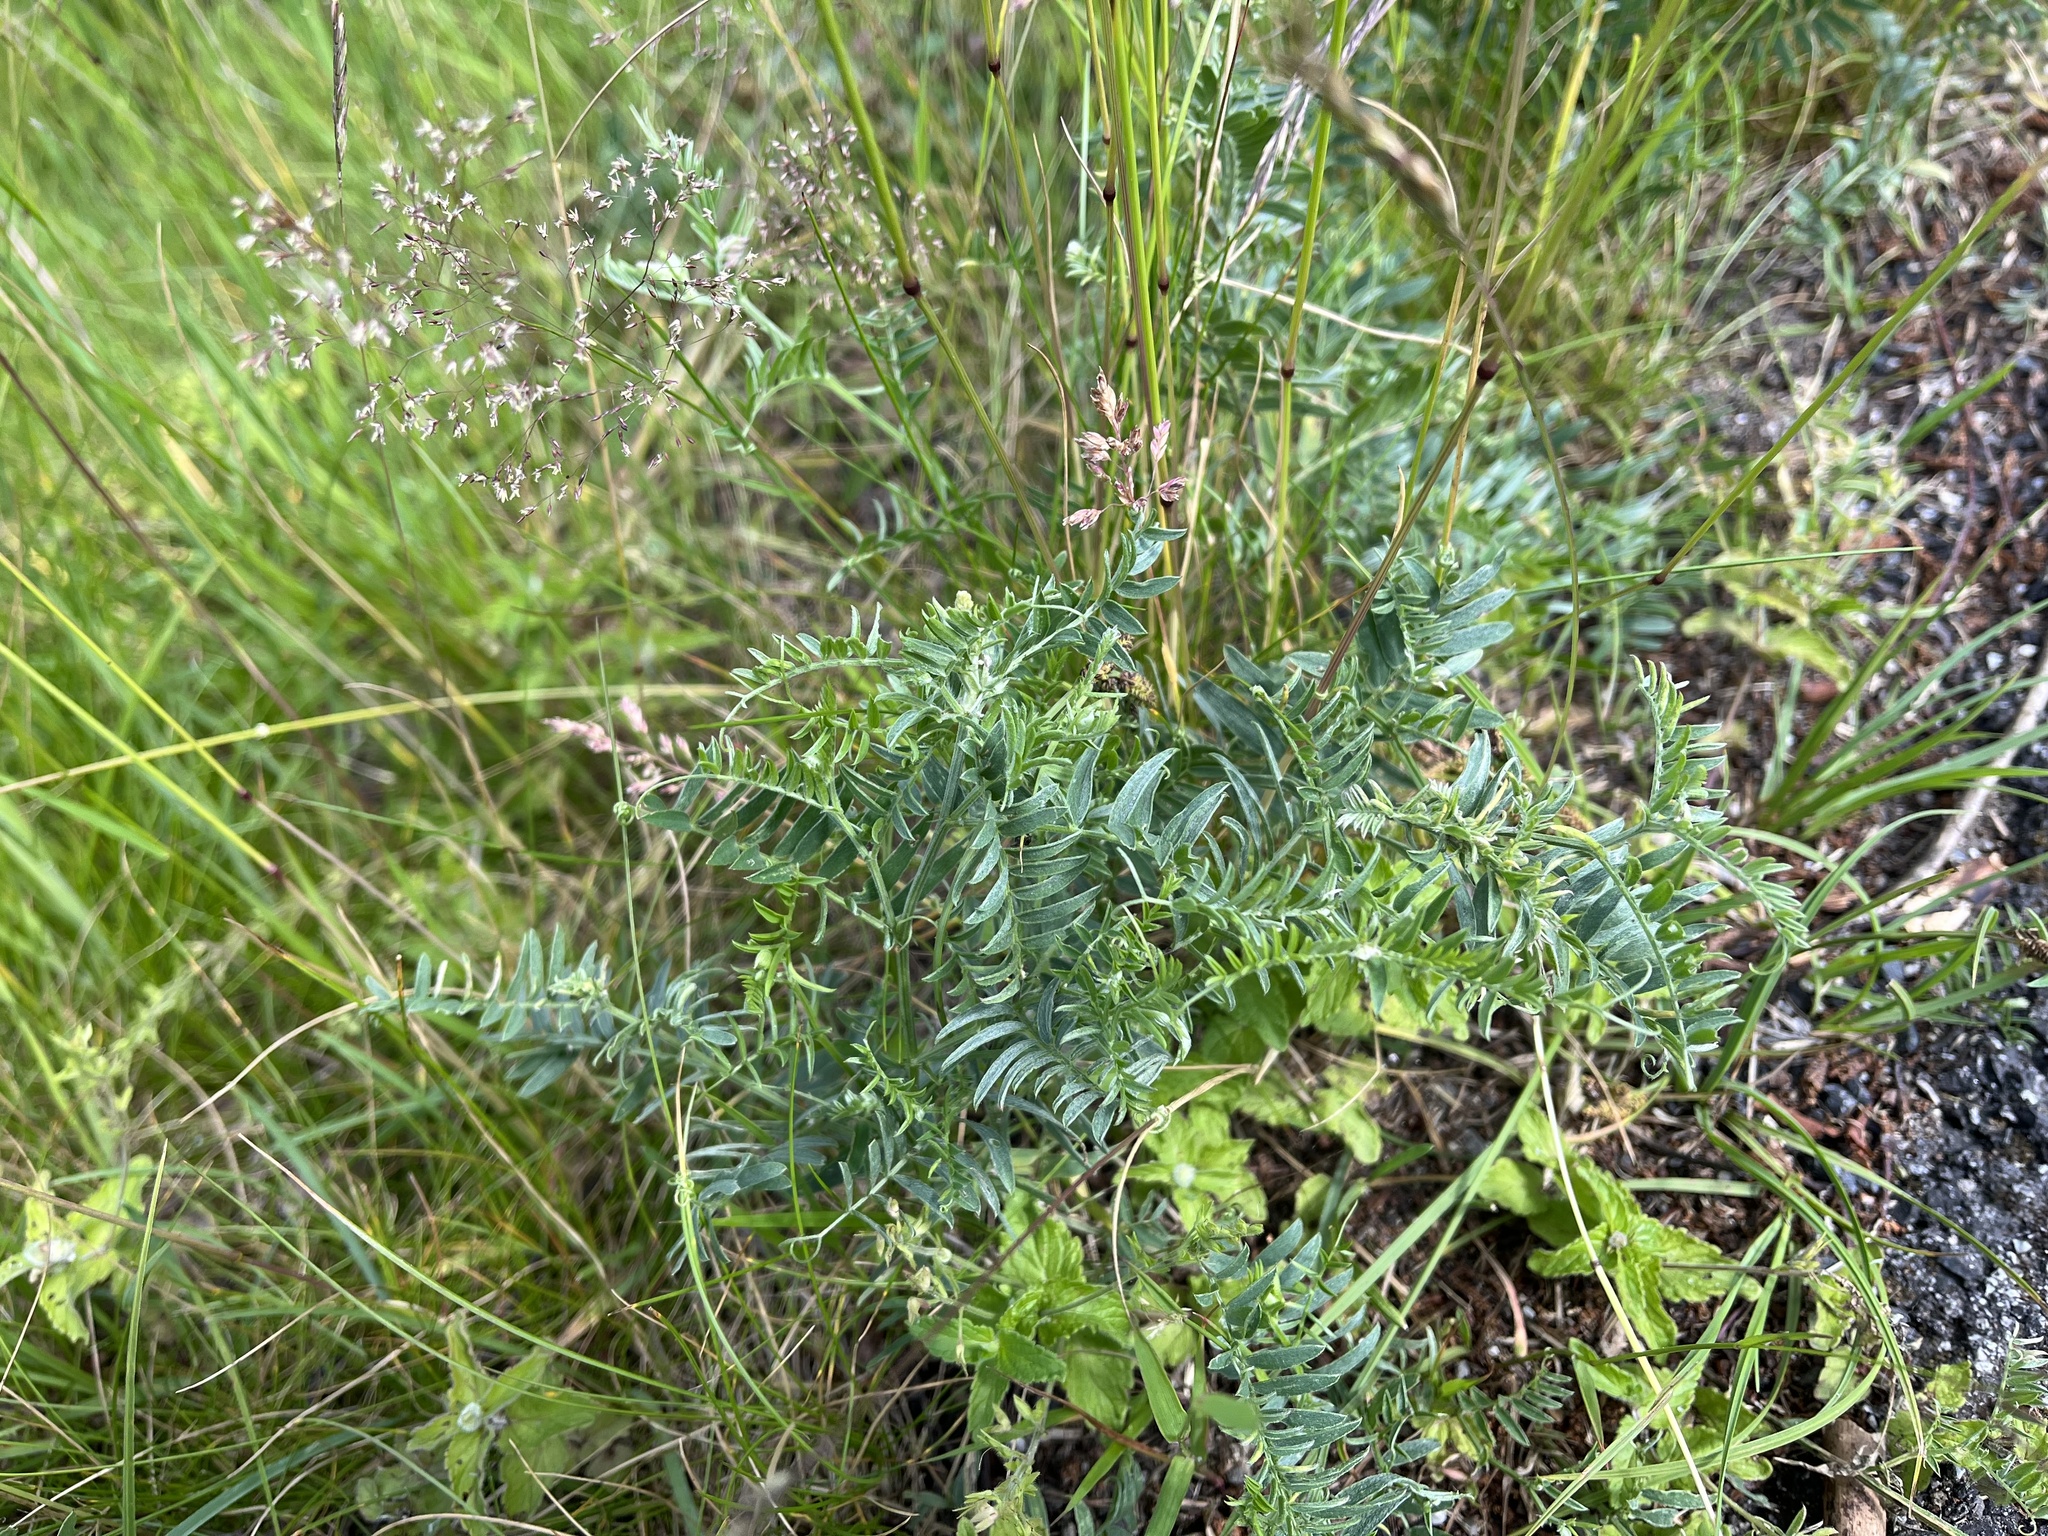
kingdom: Plantae
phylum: Tracheophyta
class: Magnoliopsida
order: Fabales
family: Fabaceae
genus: Vicia
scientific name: Vicia cracca
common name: Bird vetch
